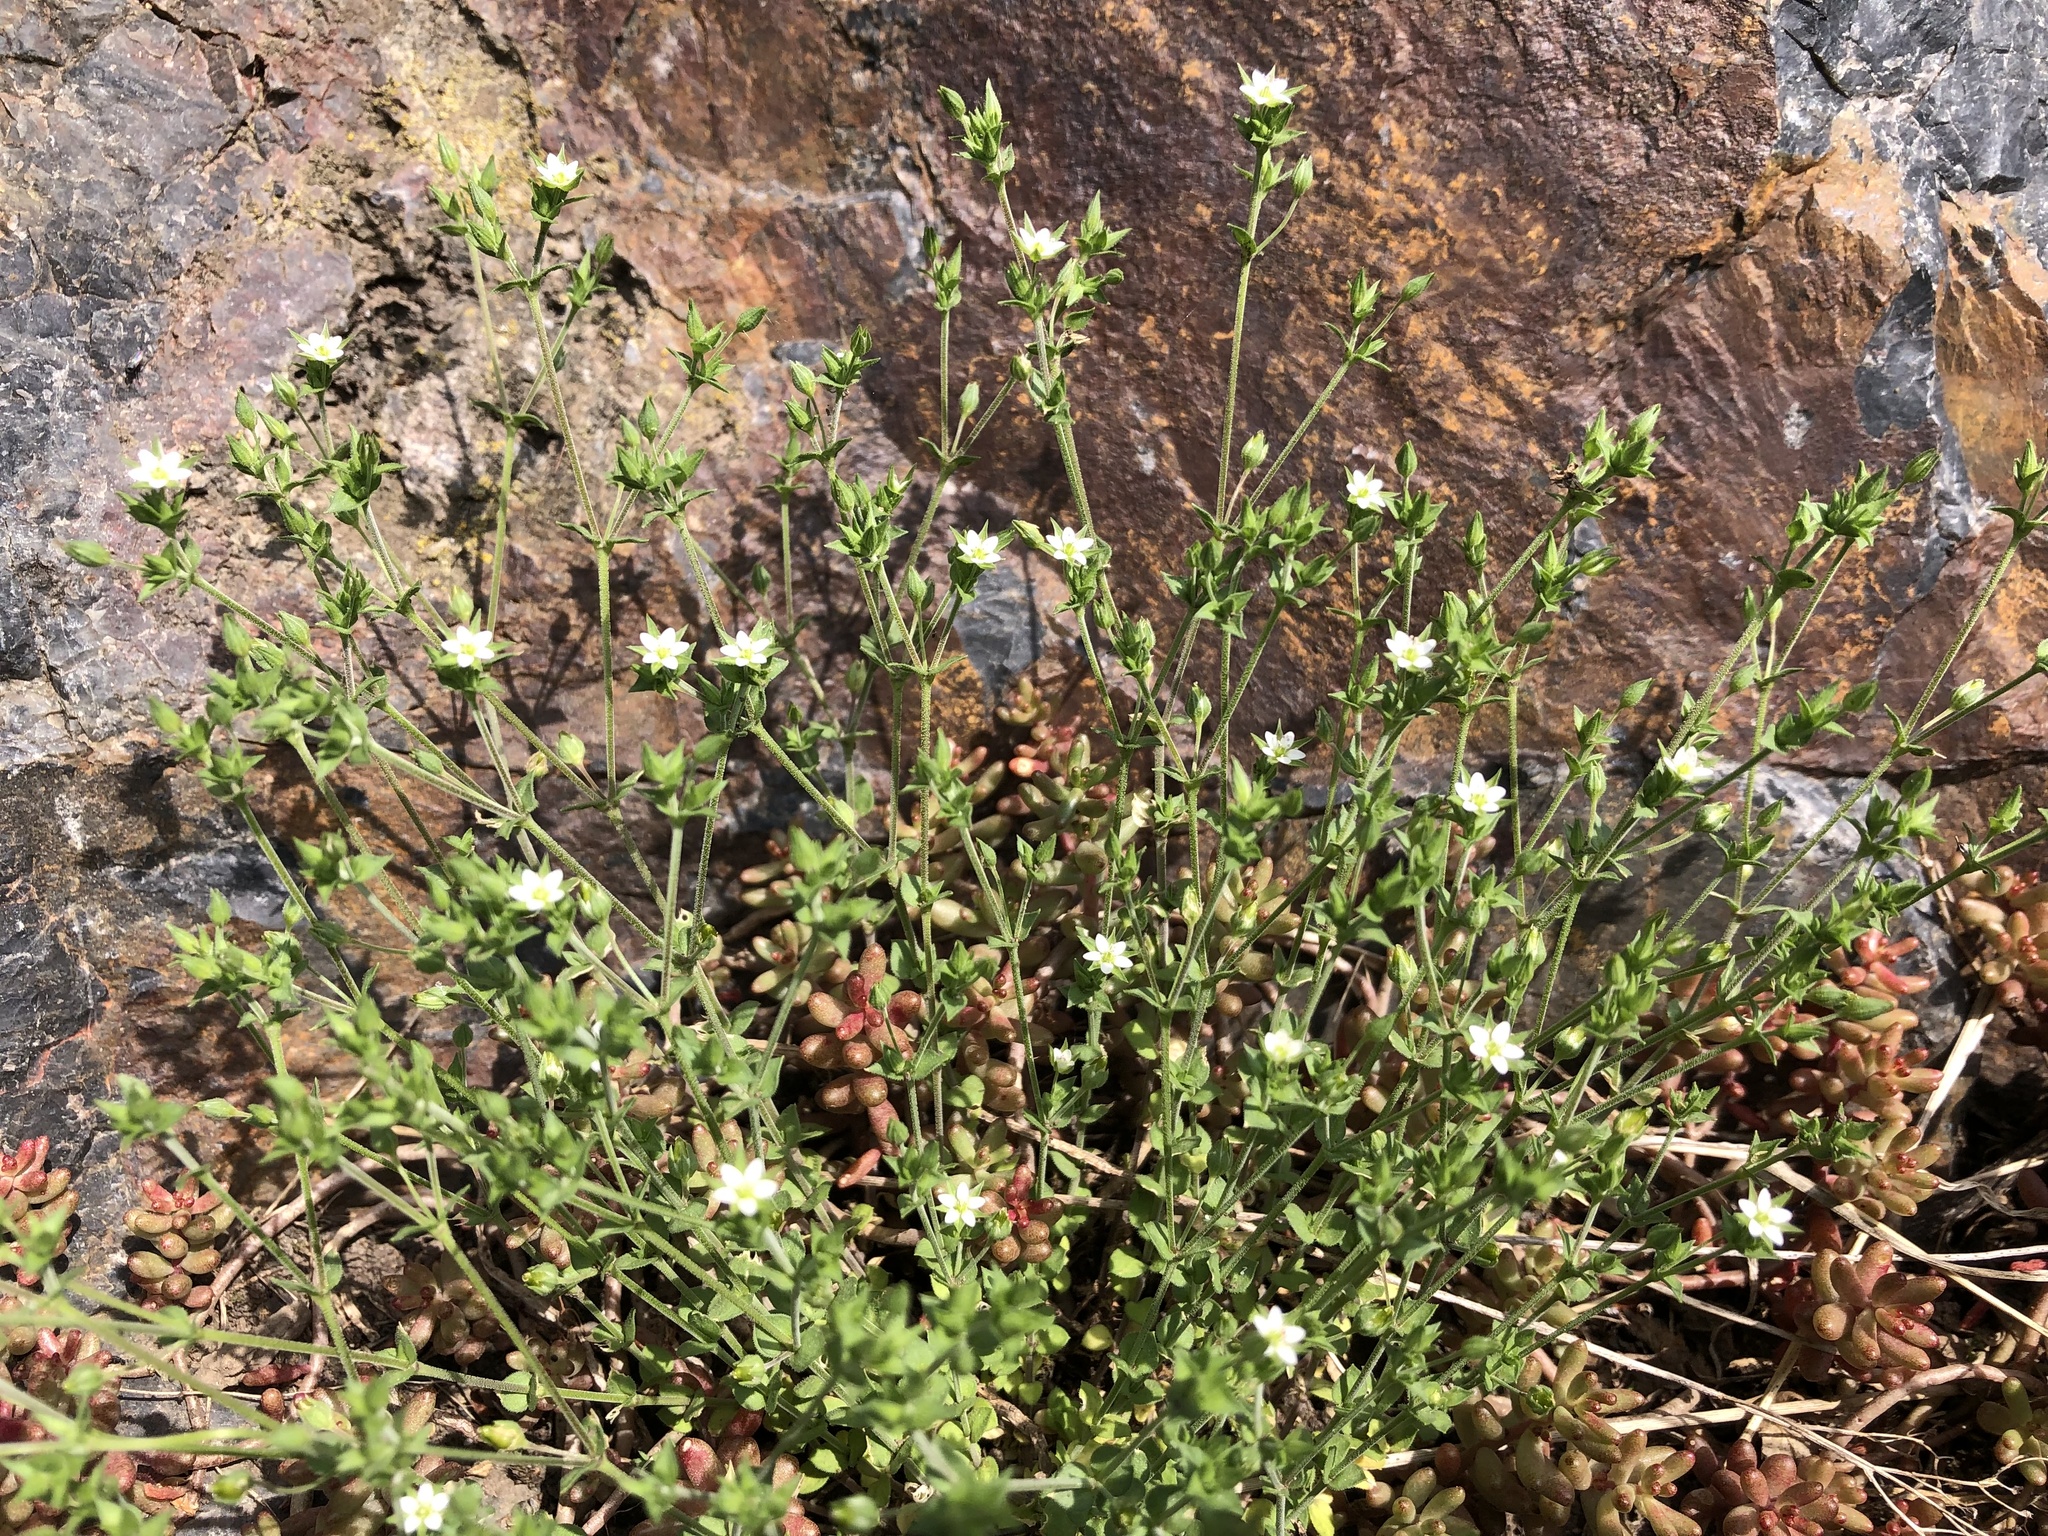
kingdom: Plantae
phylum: Tracheophyta
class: Magnoliopsida
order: Caryophyllales
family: Caryophyllaceae
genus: Arenaria
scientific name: Arenaria serpyllifolia
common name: Thyme-leaved sandwort
